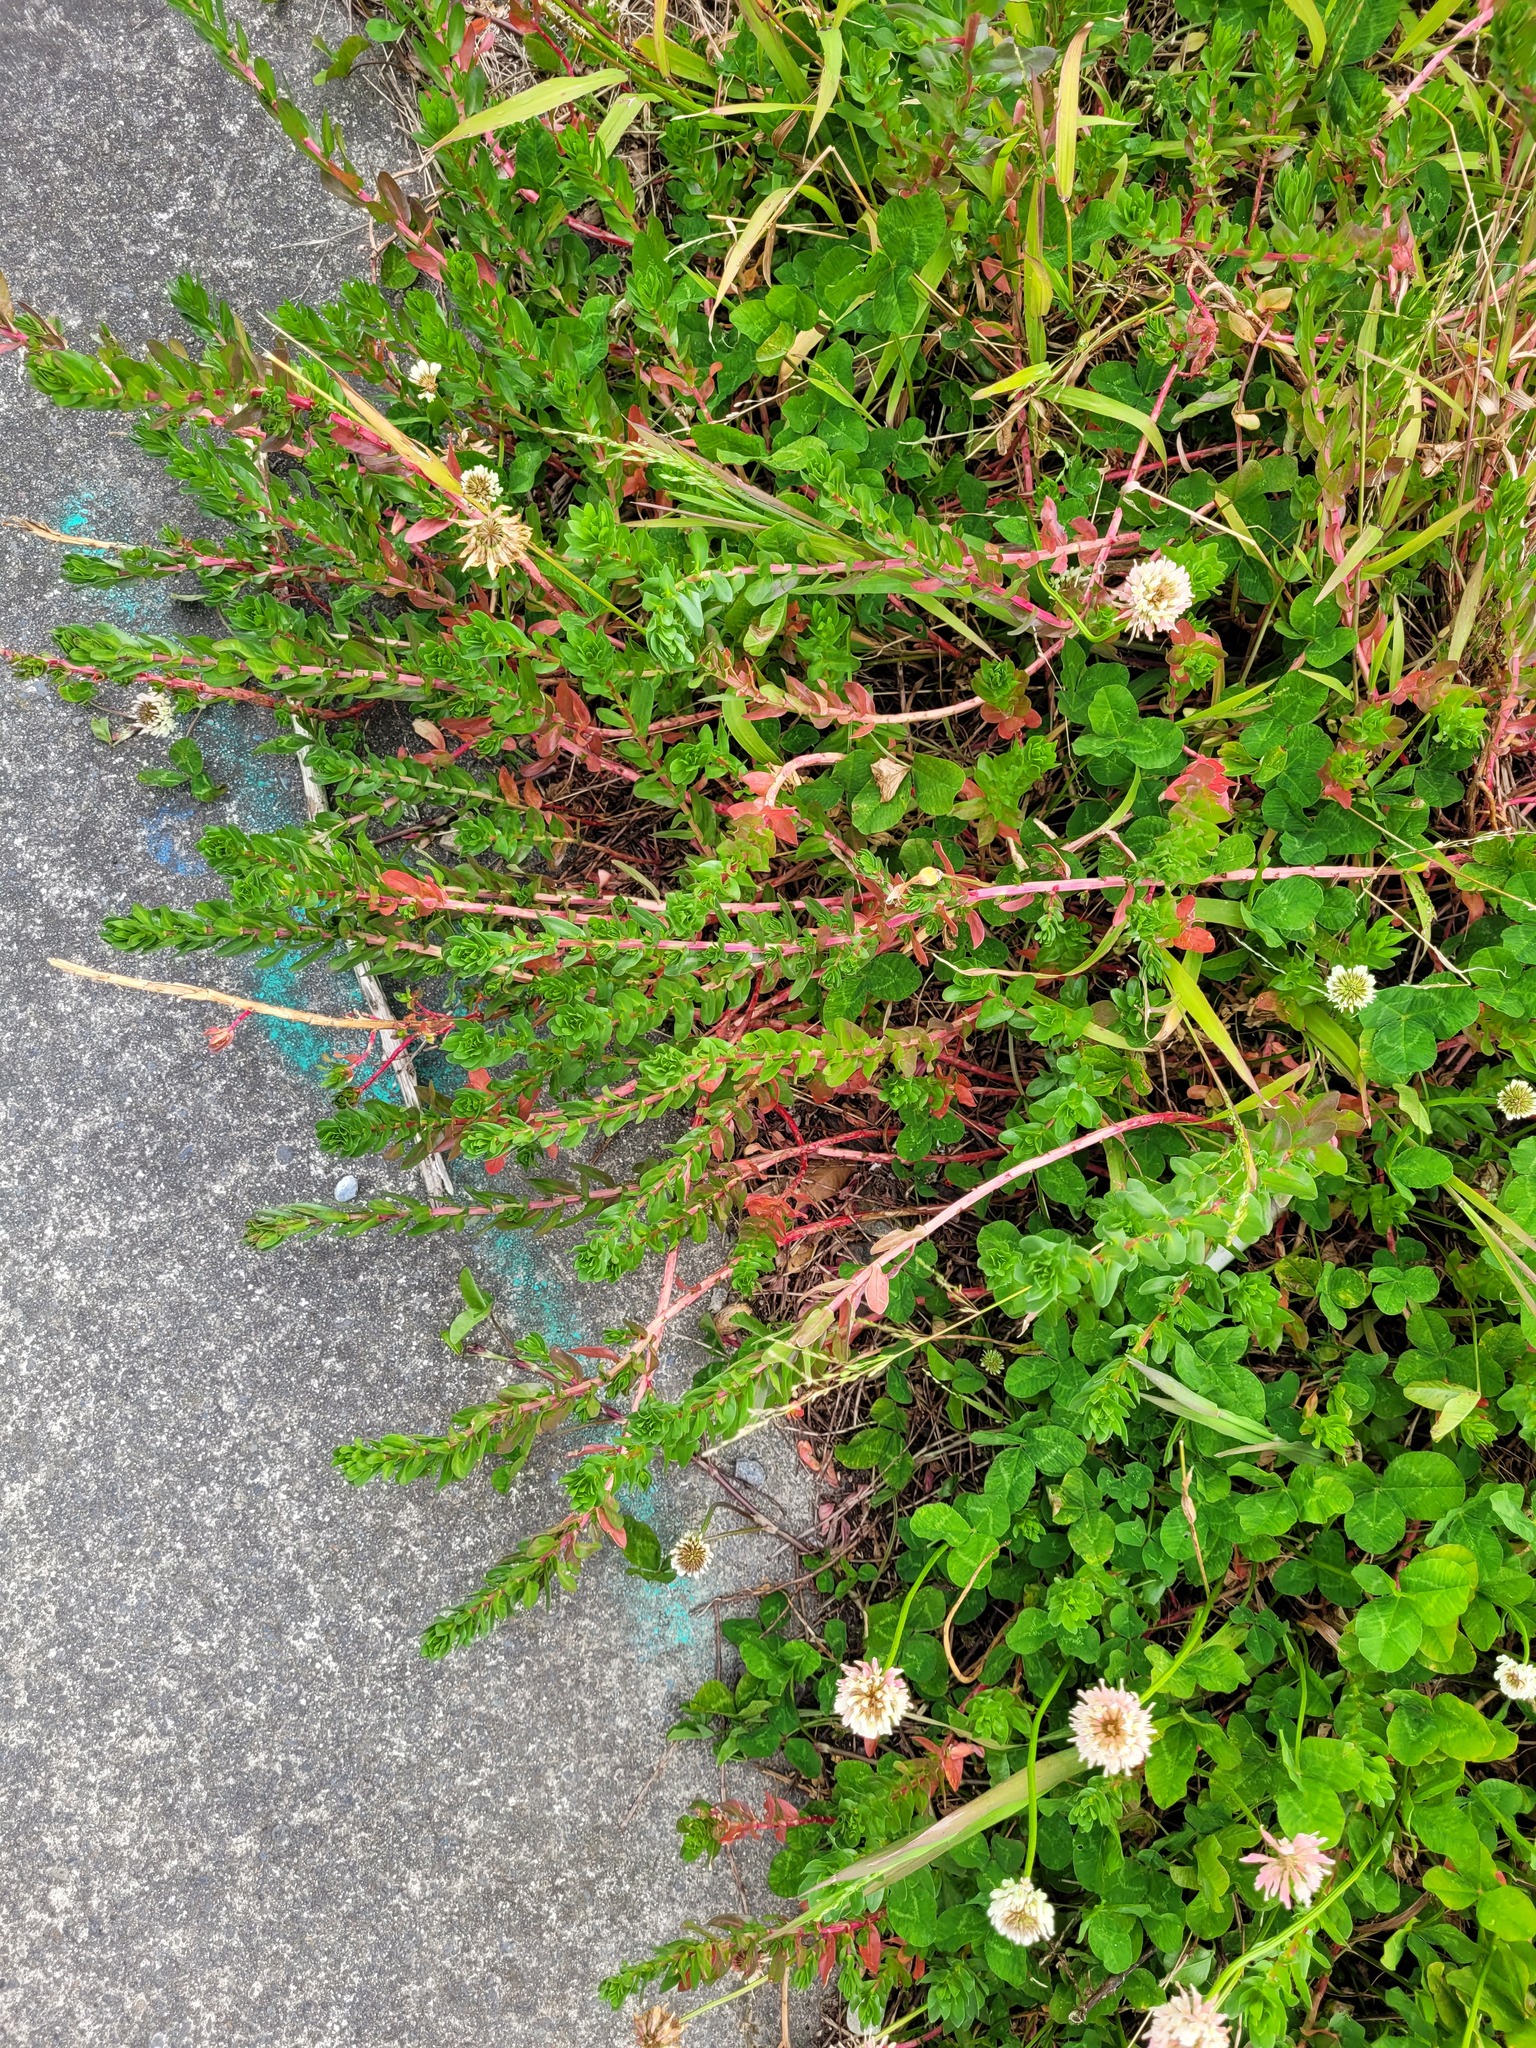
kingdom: Plantae
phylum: Tracheophyta
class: Magnoliopsida
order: Myrtales
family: Lythraceae
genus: Lythrum
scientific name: Lythrum hyssopifolia
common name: Grass-poly
